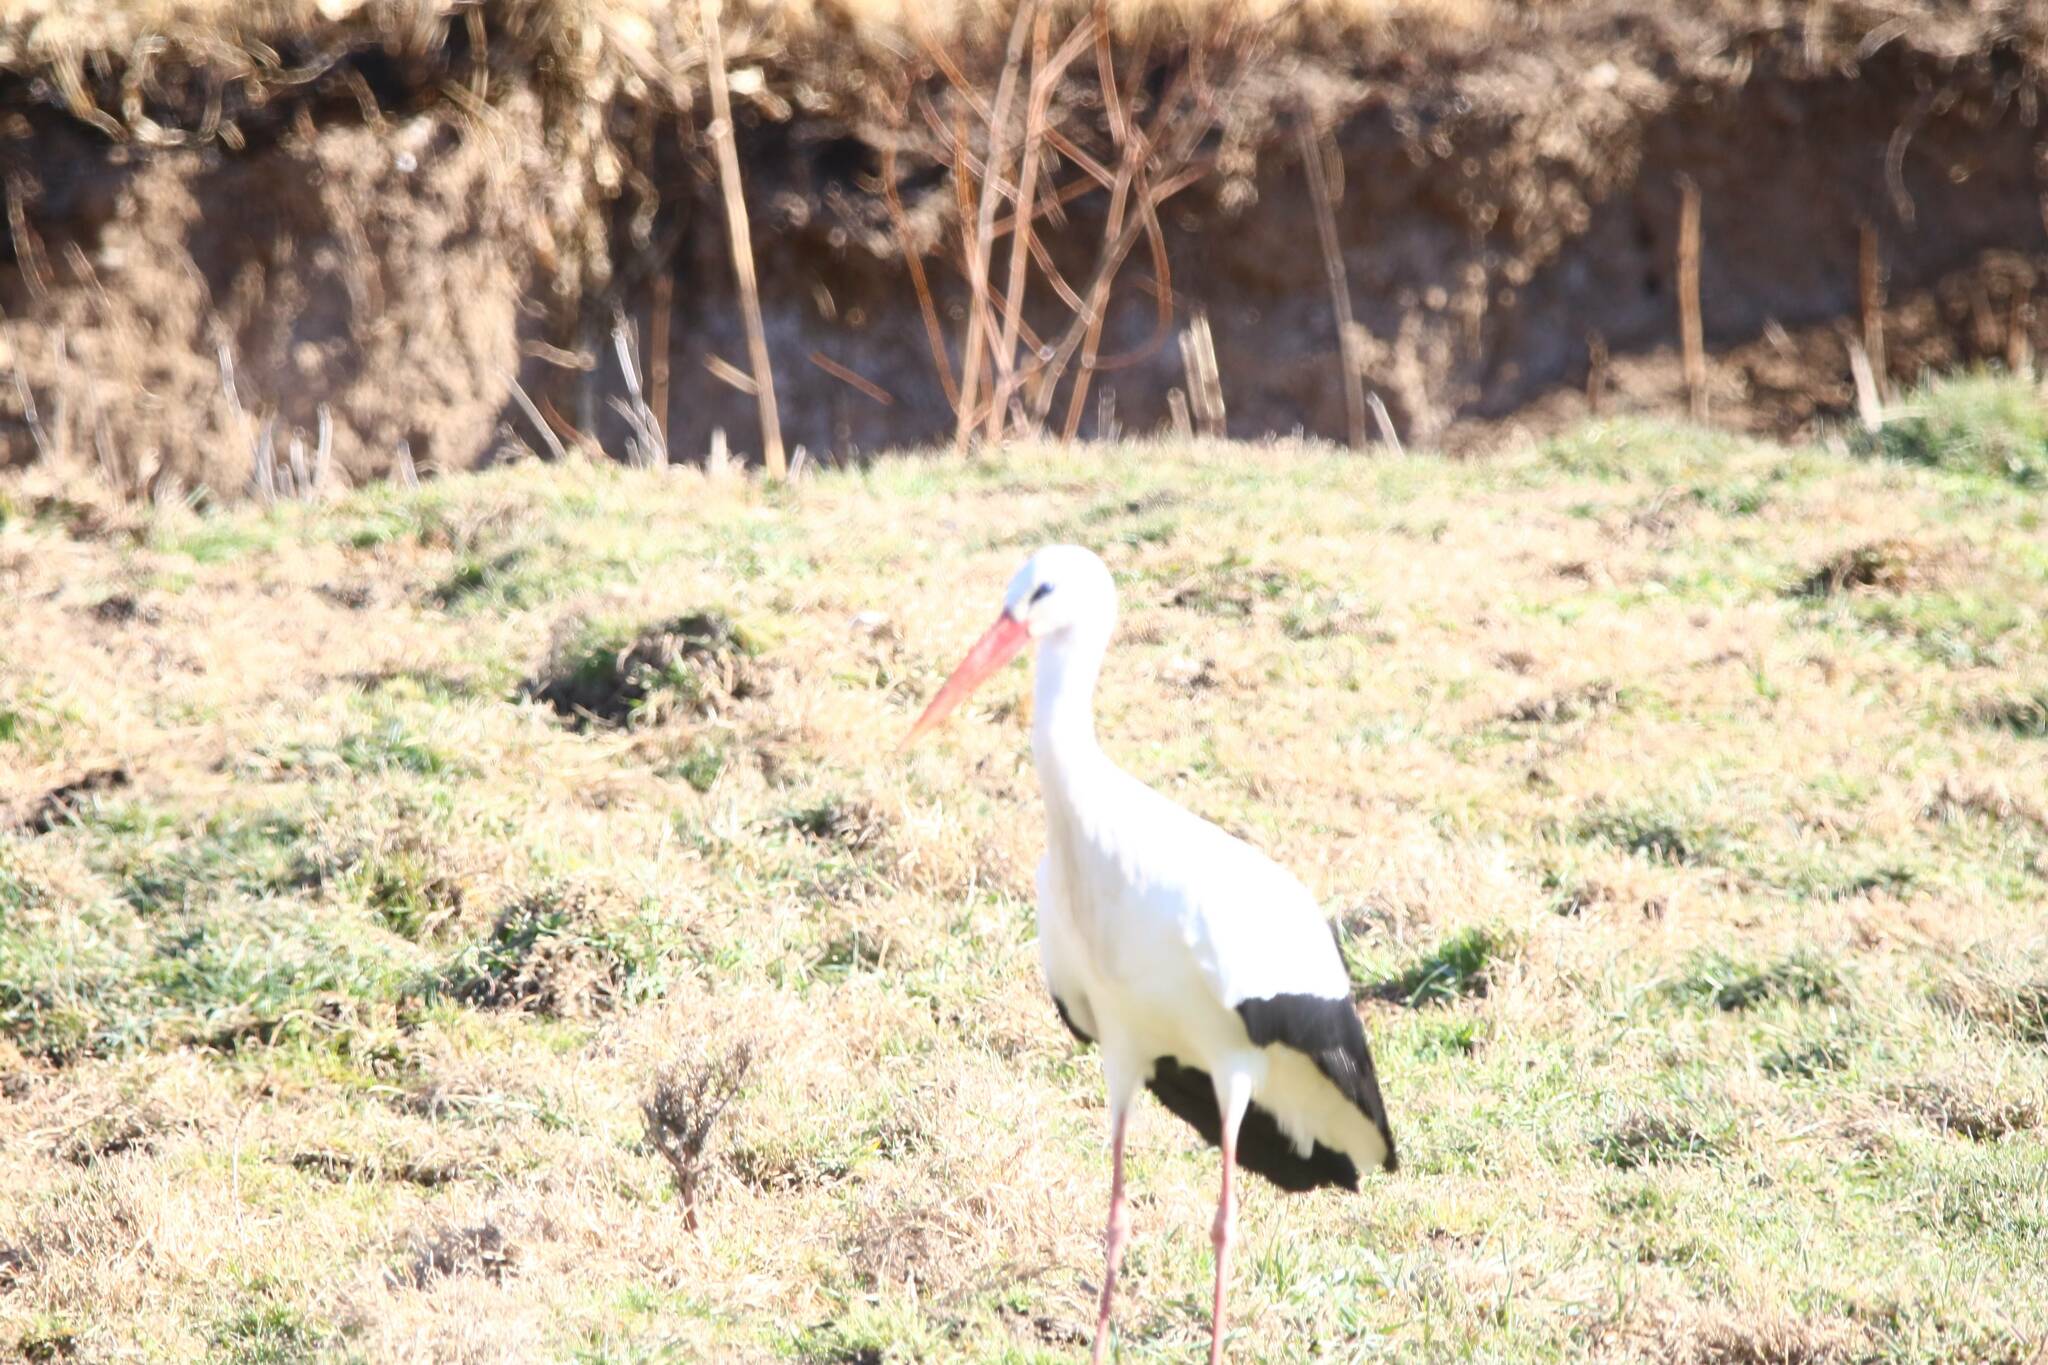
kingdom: Animalia
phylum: Chordata
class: Aves
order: Ciconiiformes
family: Ciconiidae
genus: Ciconia
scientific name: Ciconia ciconia
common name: White stork
